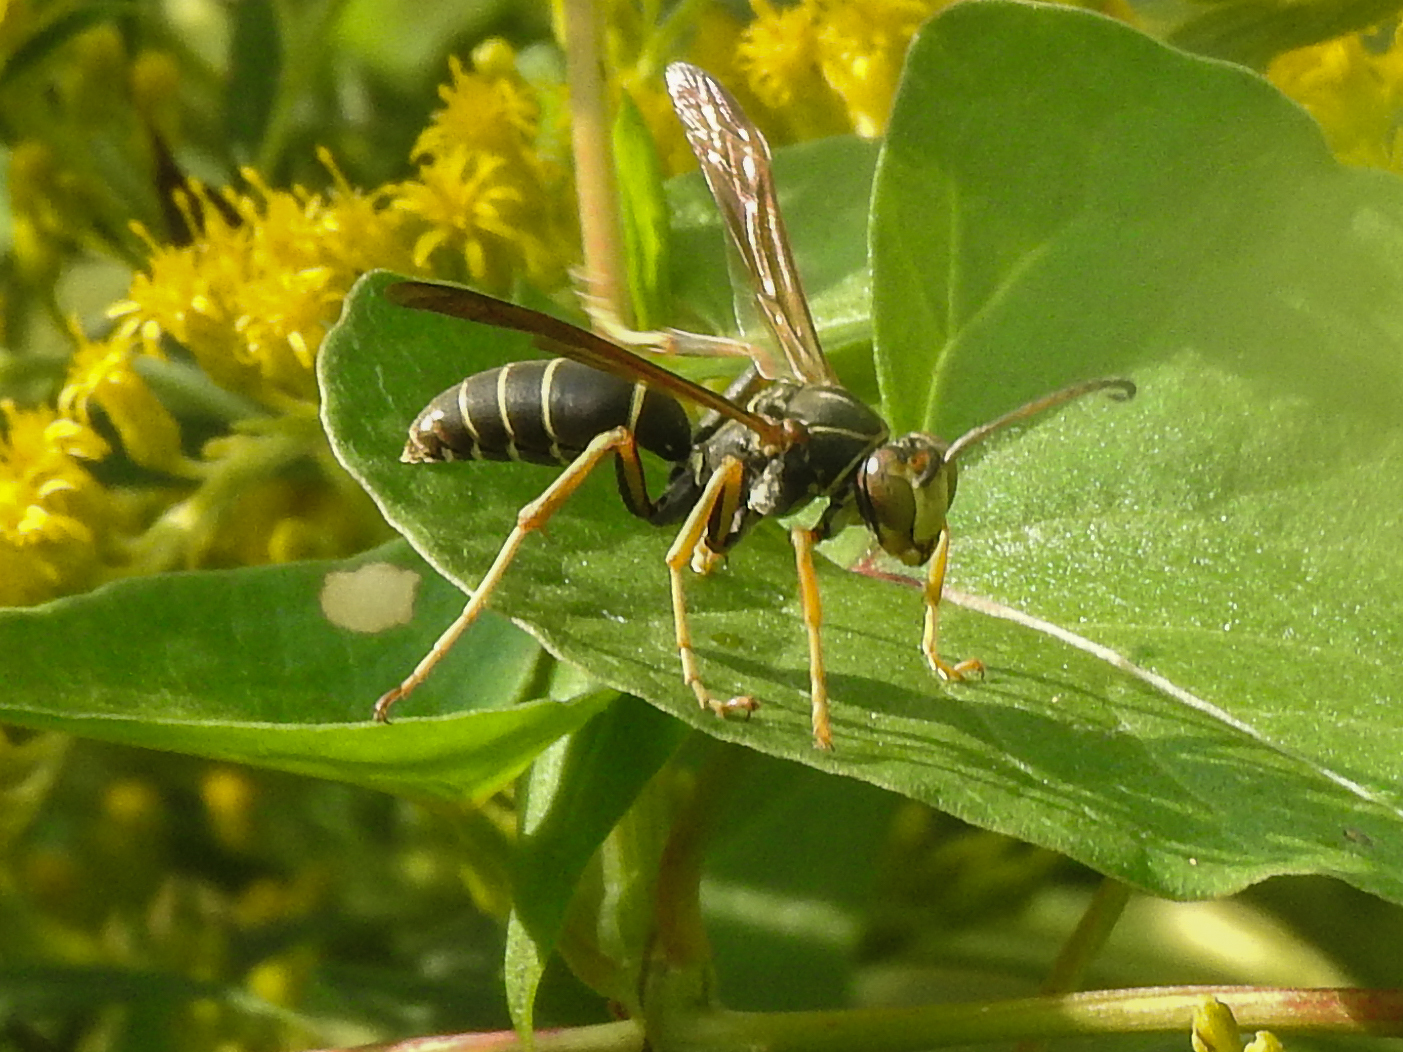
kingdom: Animalia
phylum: Arthropoda
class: Insecta
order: Hymenoptera
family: Eumenidae
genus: Polistes
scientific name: Polistes fuscatus
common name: Dark paper wasp
